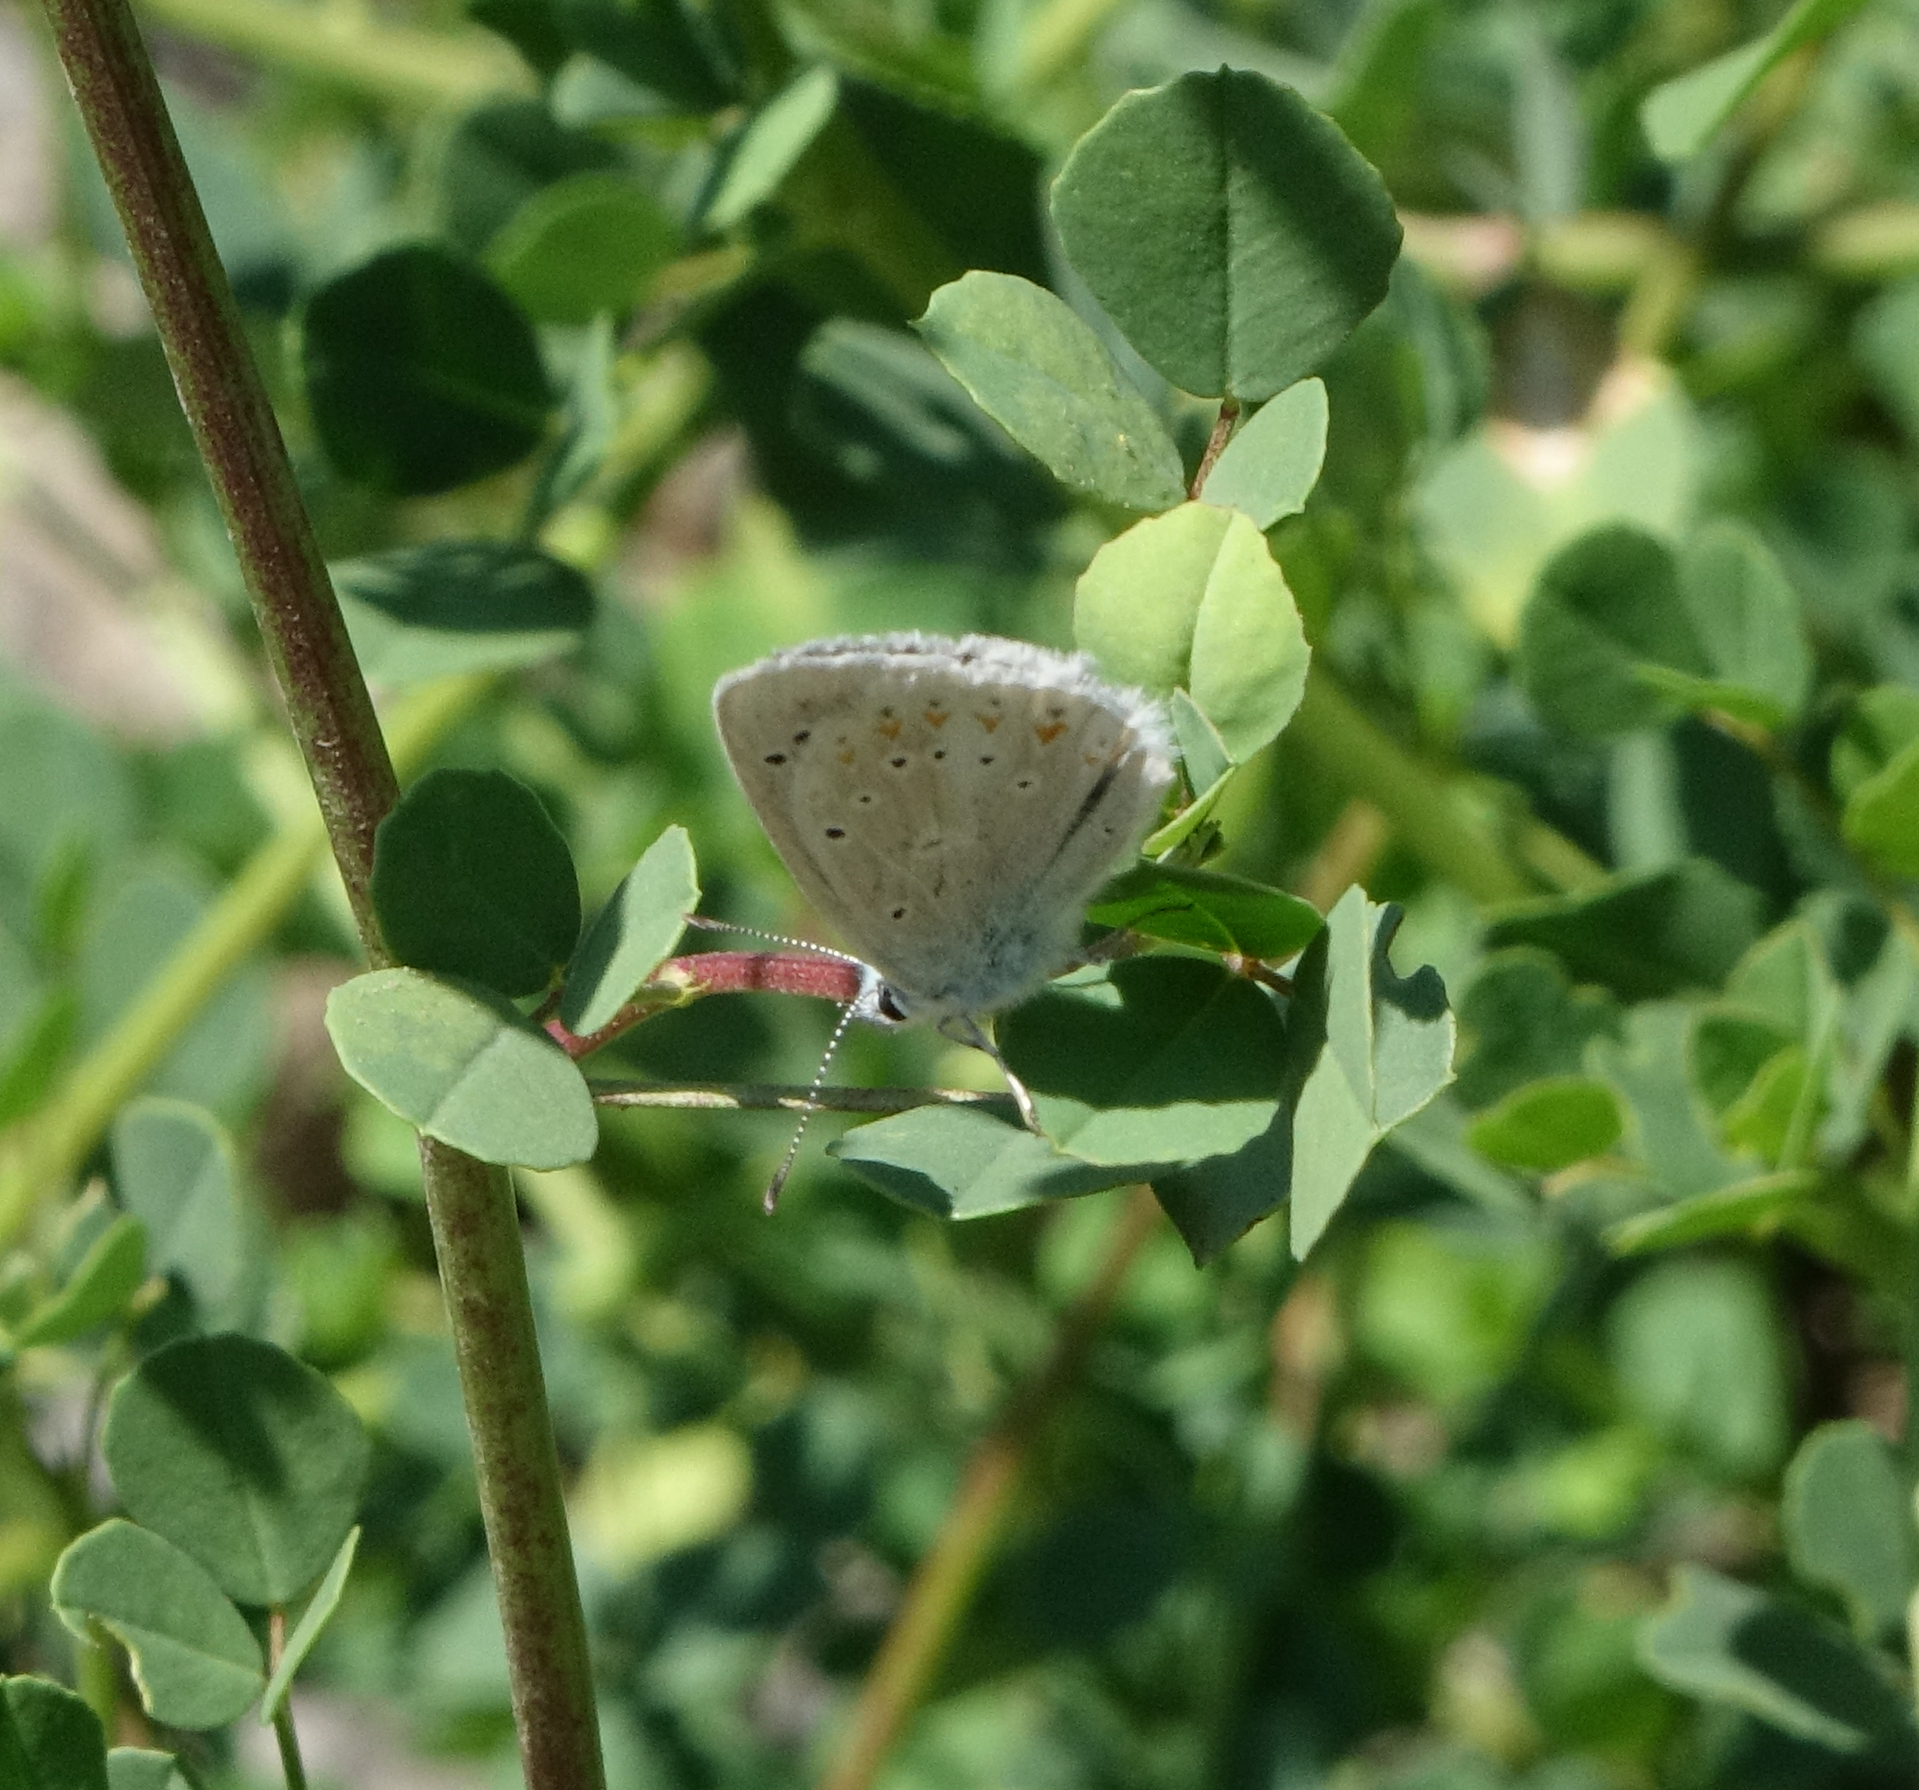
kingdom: Animalia
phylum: Arthropoda
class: Insecta
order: Lepidoptera
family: Lycaenidae
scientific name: Lycaenidae
